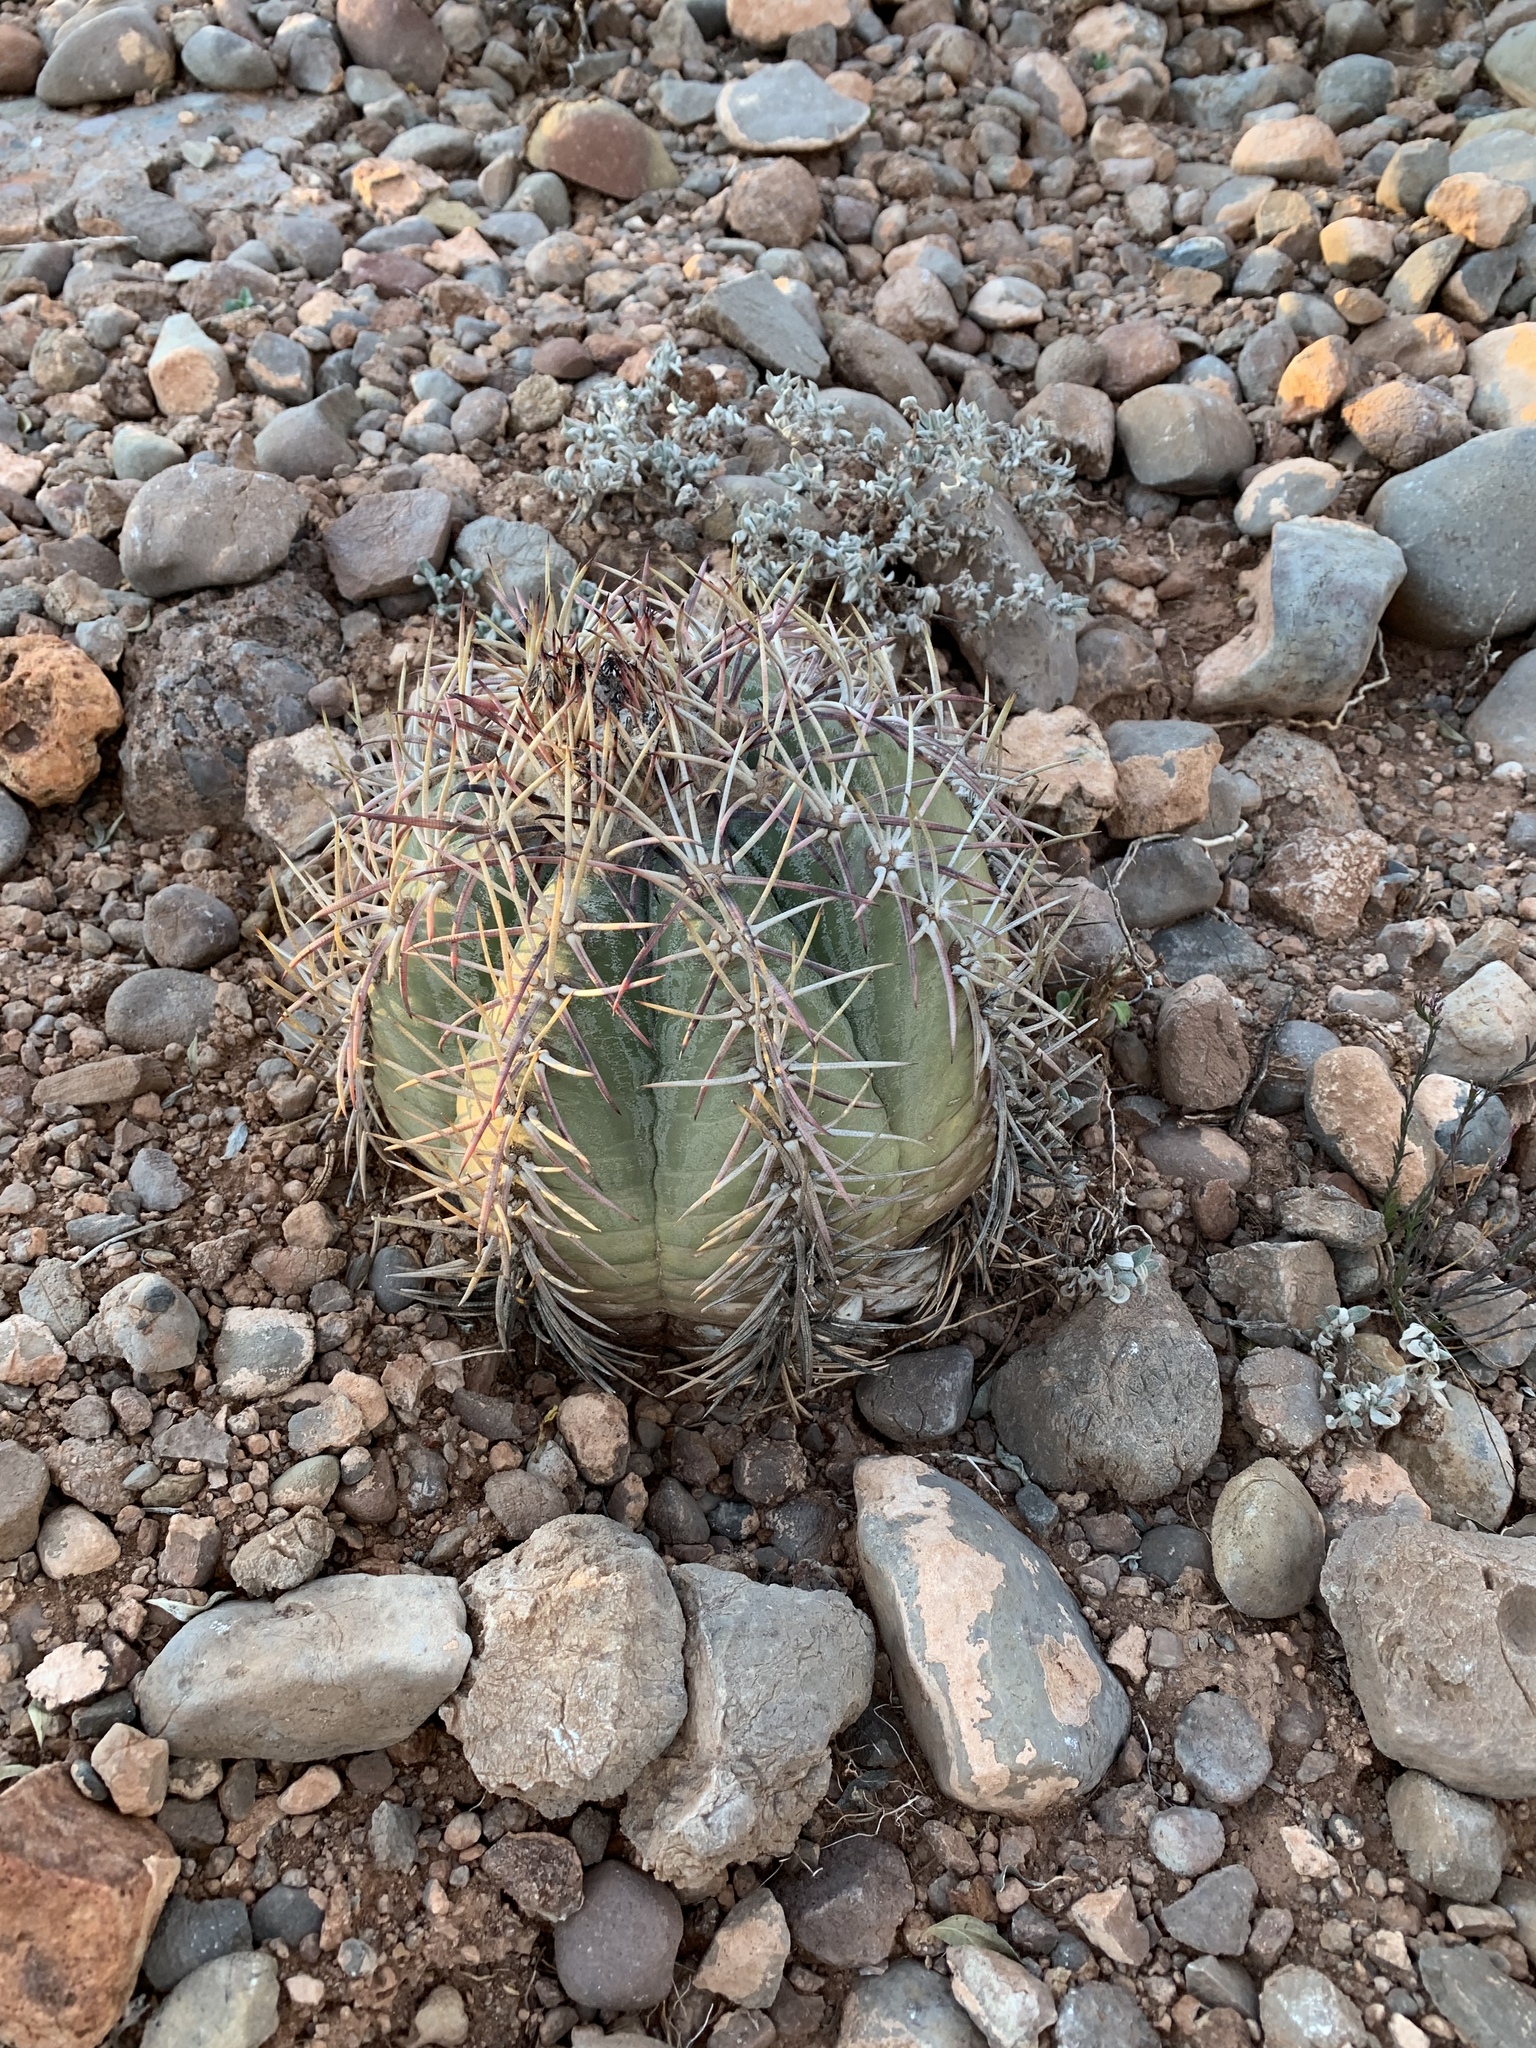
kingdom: Plantae
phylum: Tracheophyta
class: Magnoliopsida
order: Caryophyllales
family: Cactaceae
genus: Echinocactus
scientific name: Echinocactus horizonthalonius
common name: Devilshead
